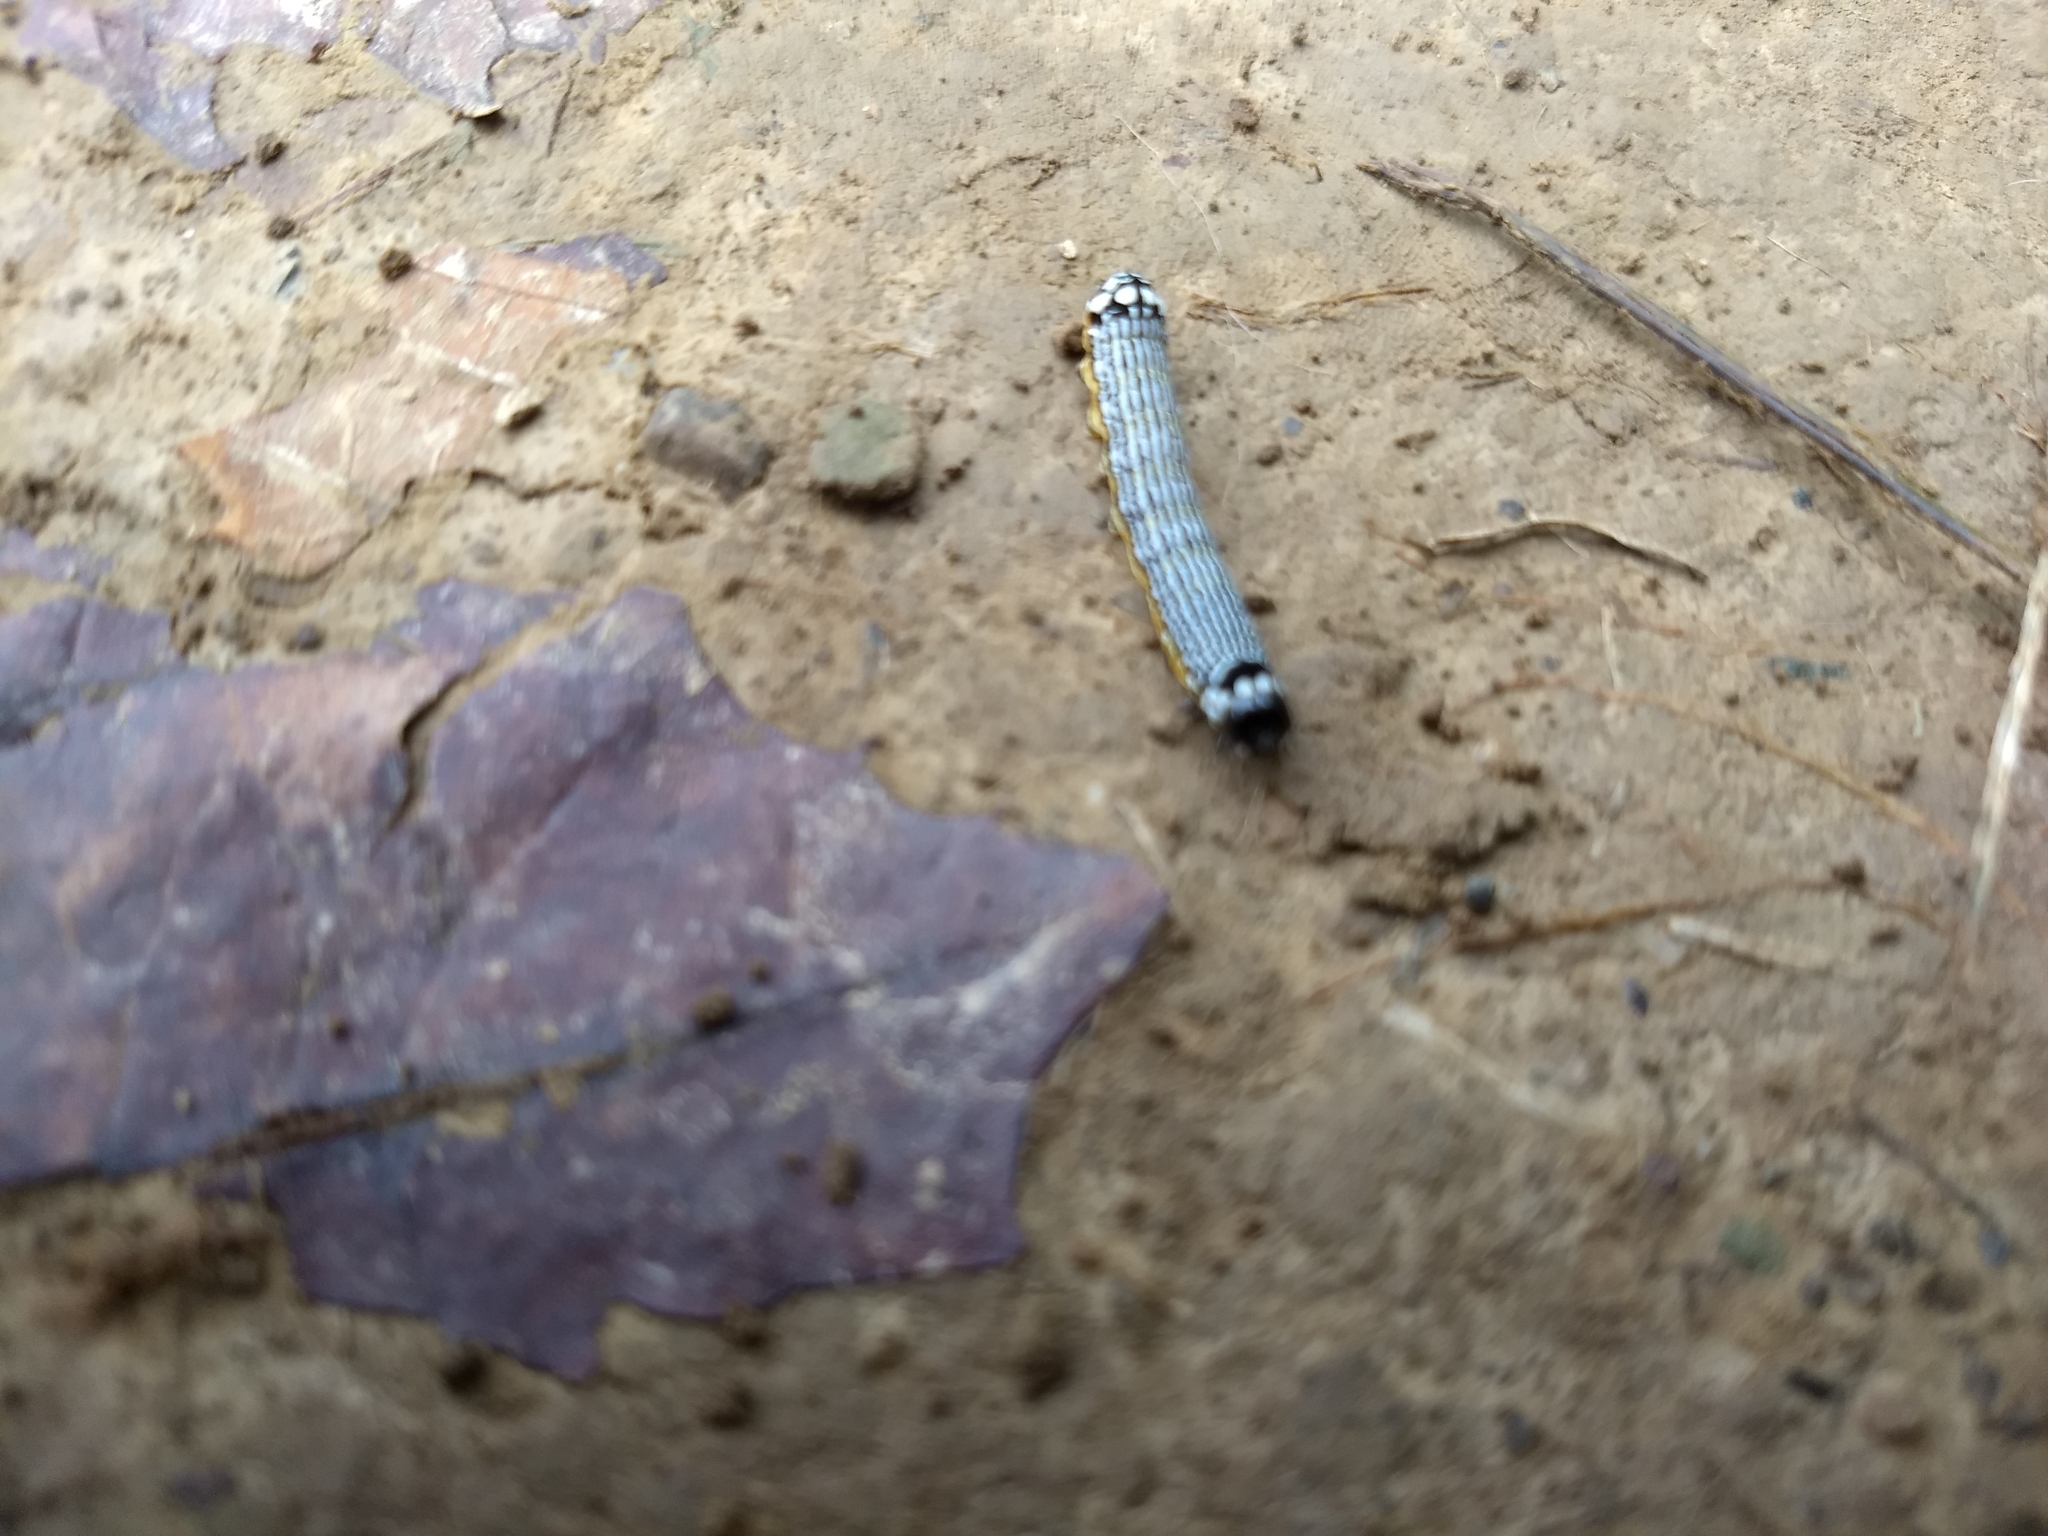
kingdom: Animalia
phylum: Arthropoda
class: Insecta
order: Lepidoptera
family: Noctuidae
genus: Phosphila
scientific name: Phosphila turbulenta
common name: Turbulent phosphila moth
